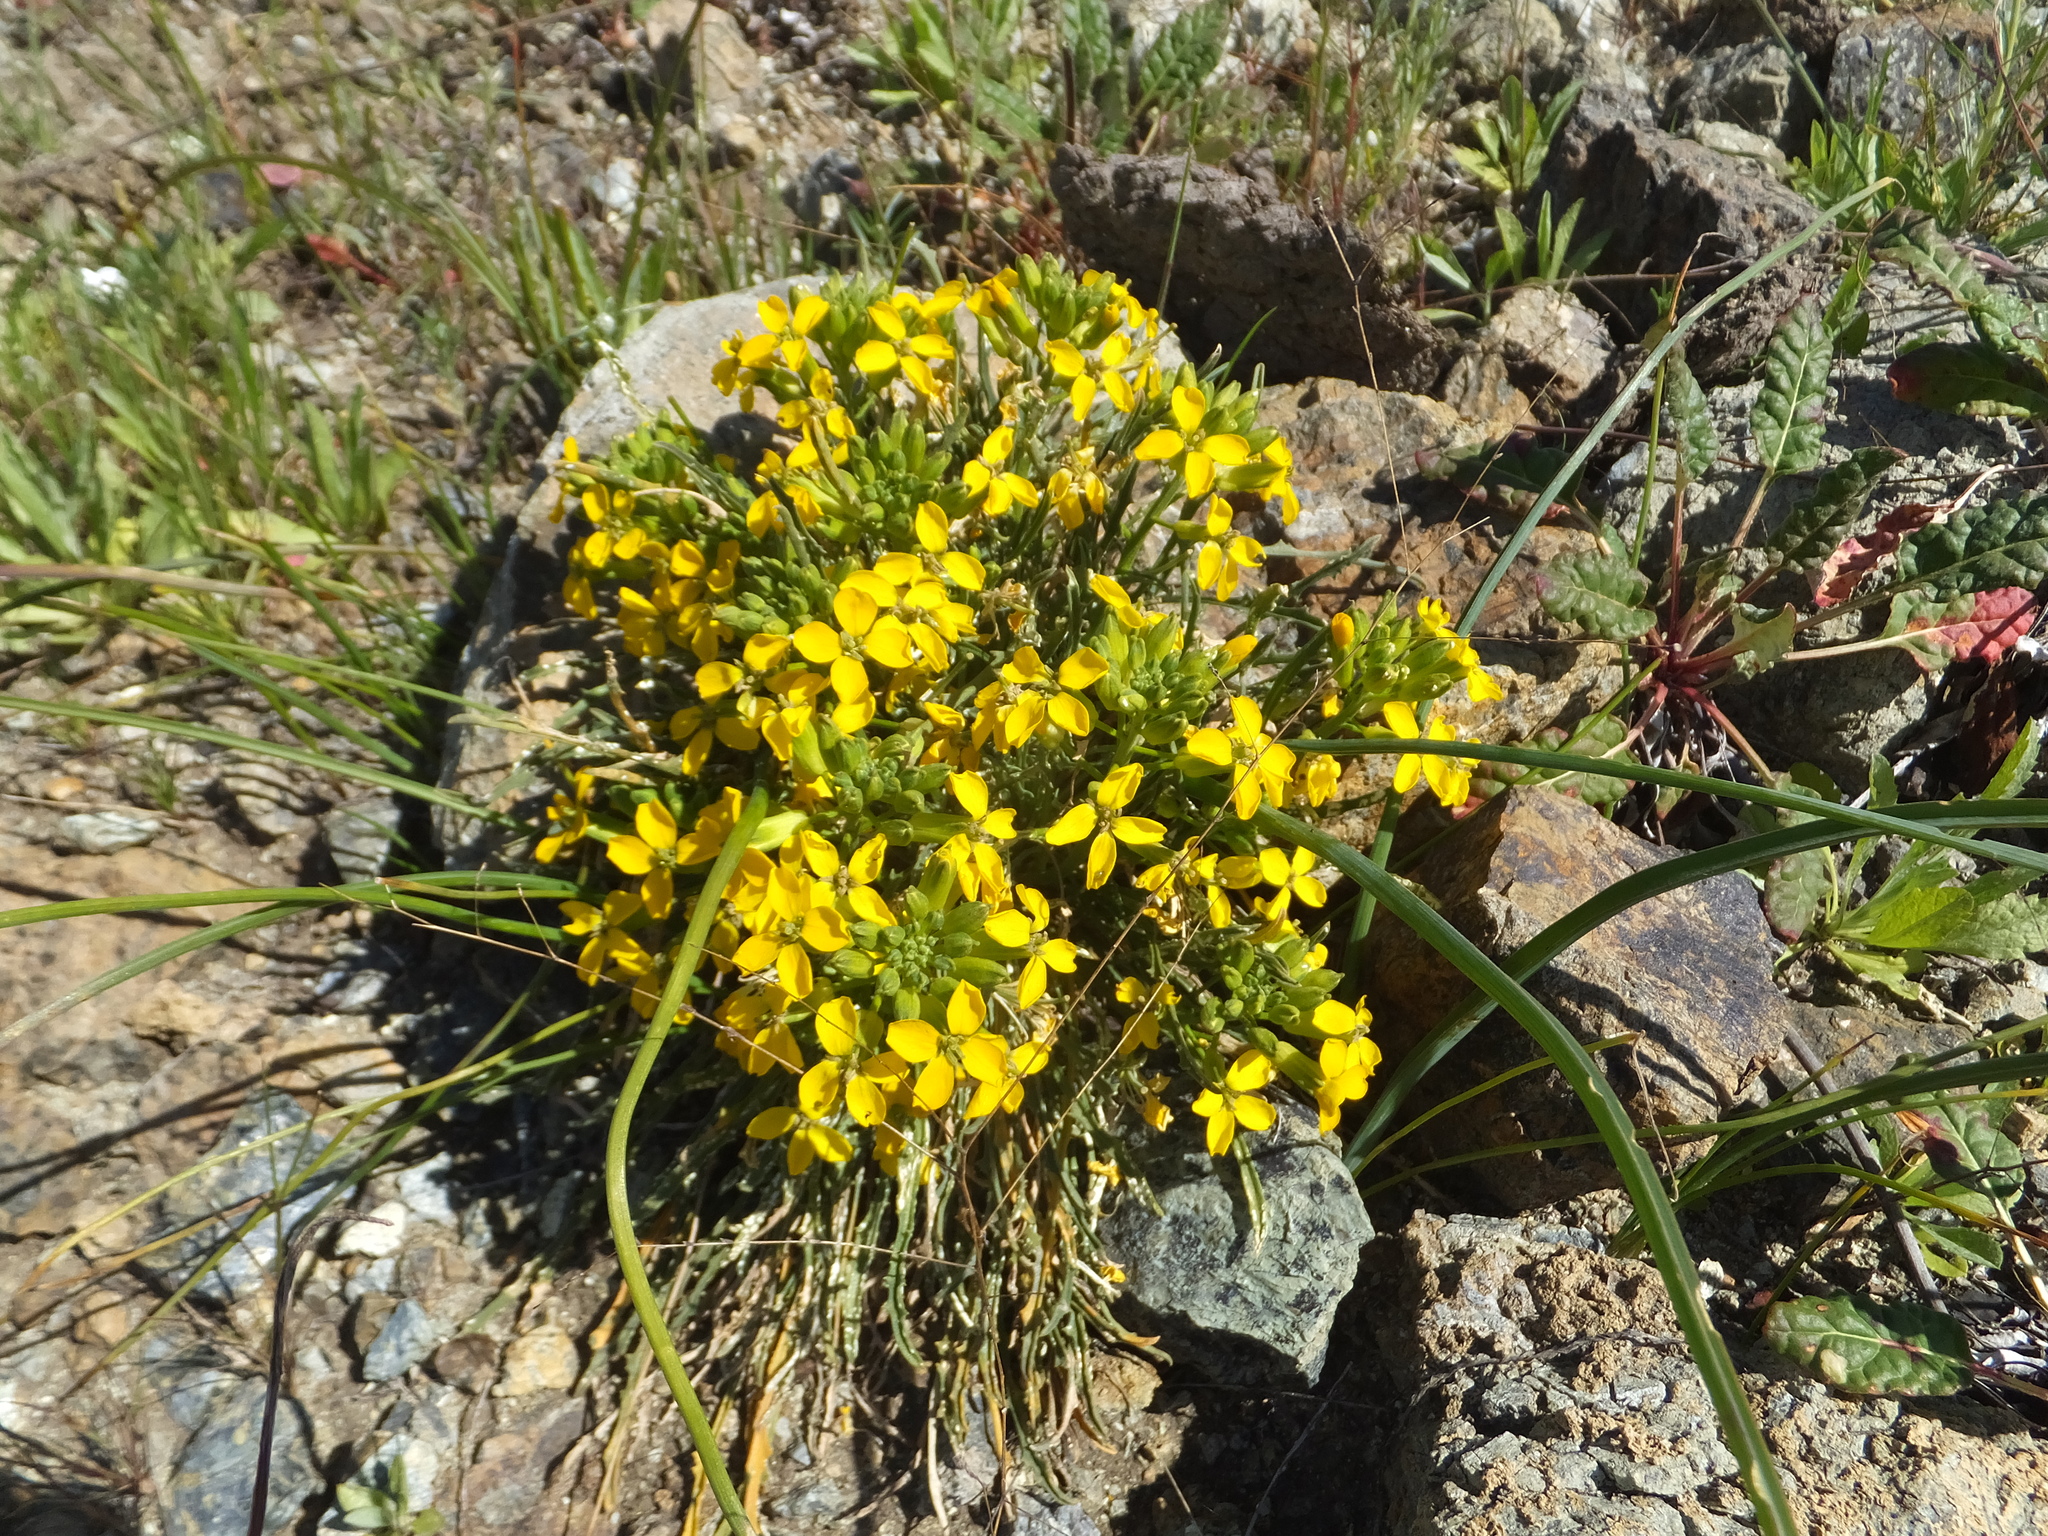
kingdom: Plantae
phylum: Tracheophyta
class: Magnoliopsida
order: Brassicales
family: Brassicaceae
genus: Erysimum
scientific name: Erysimum franciscanum
